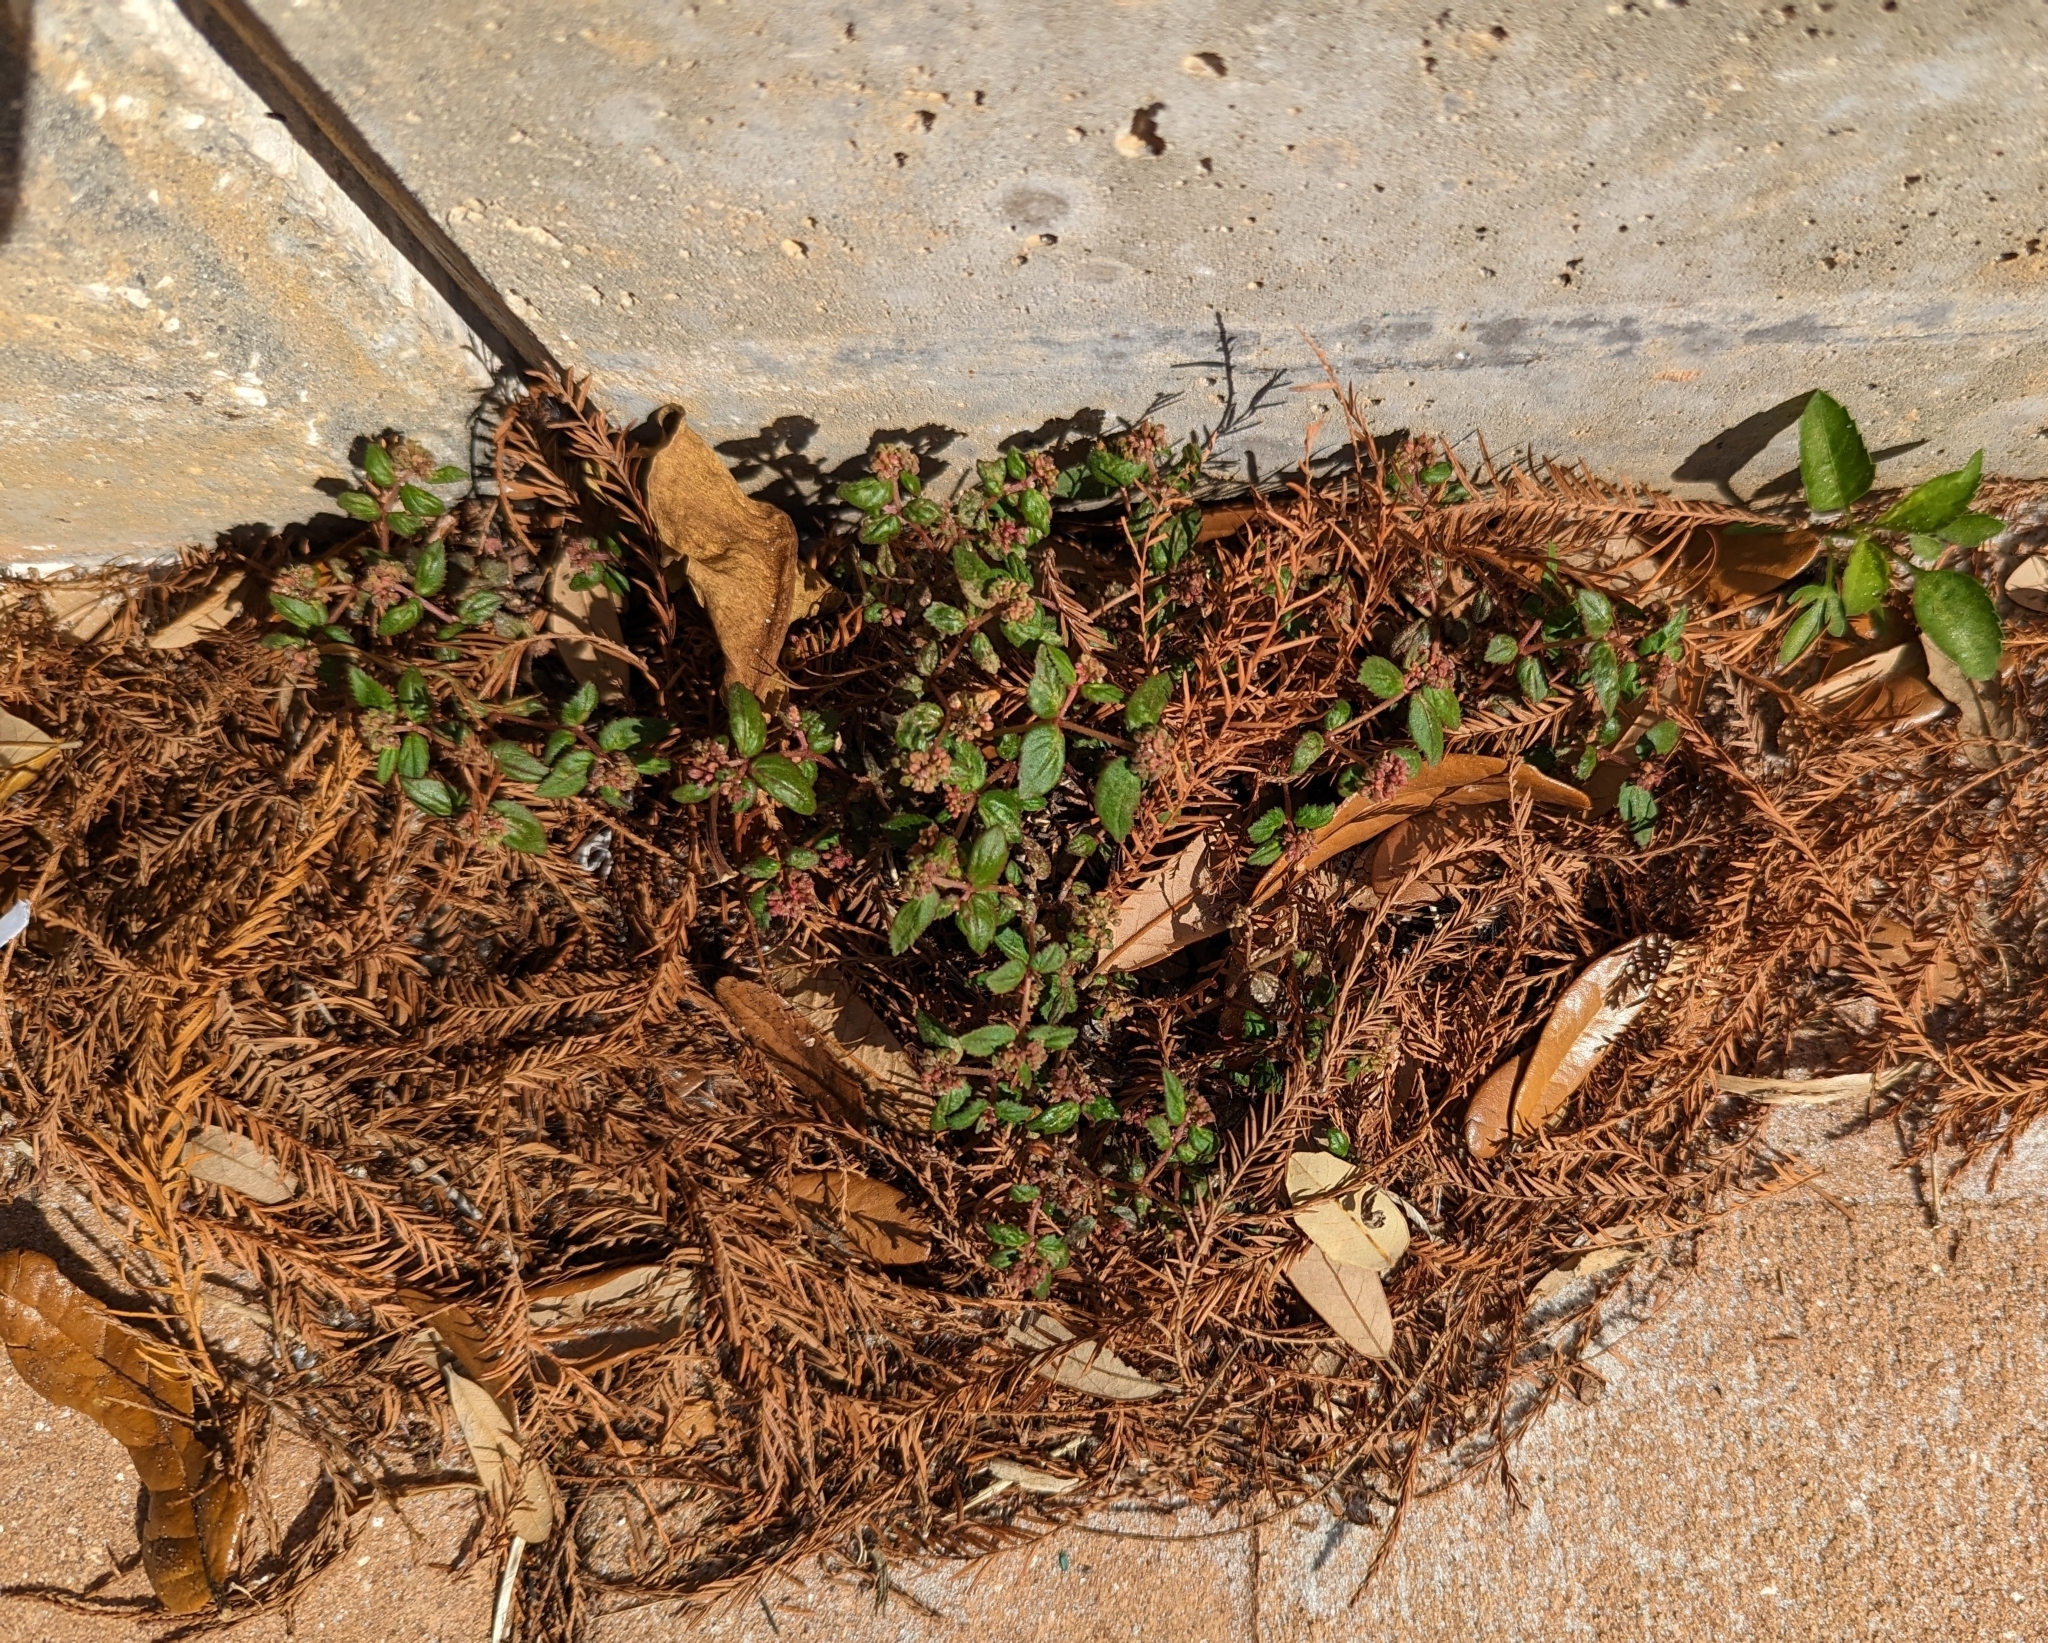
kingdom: Plantae
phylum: Tracheophyta
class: Magnoliopsida
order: Malpighiales
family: Euphorbiaceae
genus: Euphorbia
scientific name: Euphorbia ophthalmica
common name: Florida hammock sandmat
